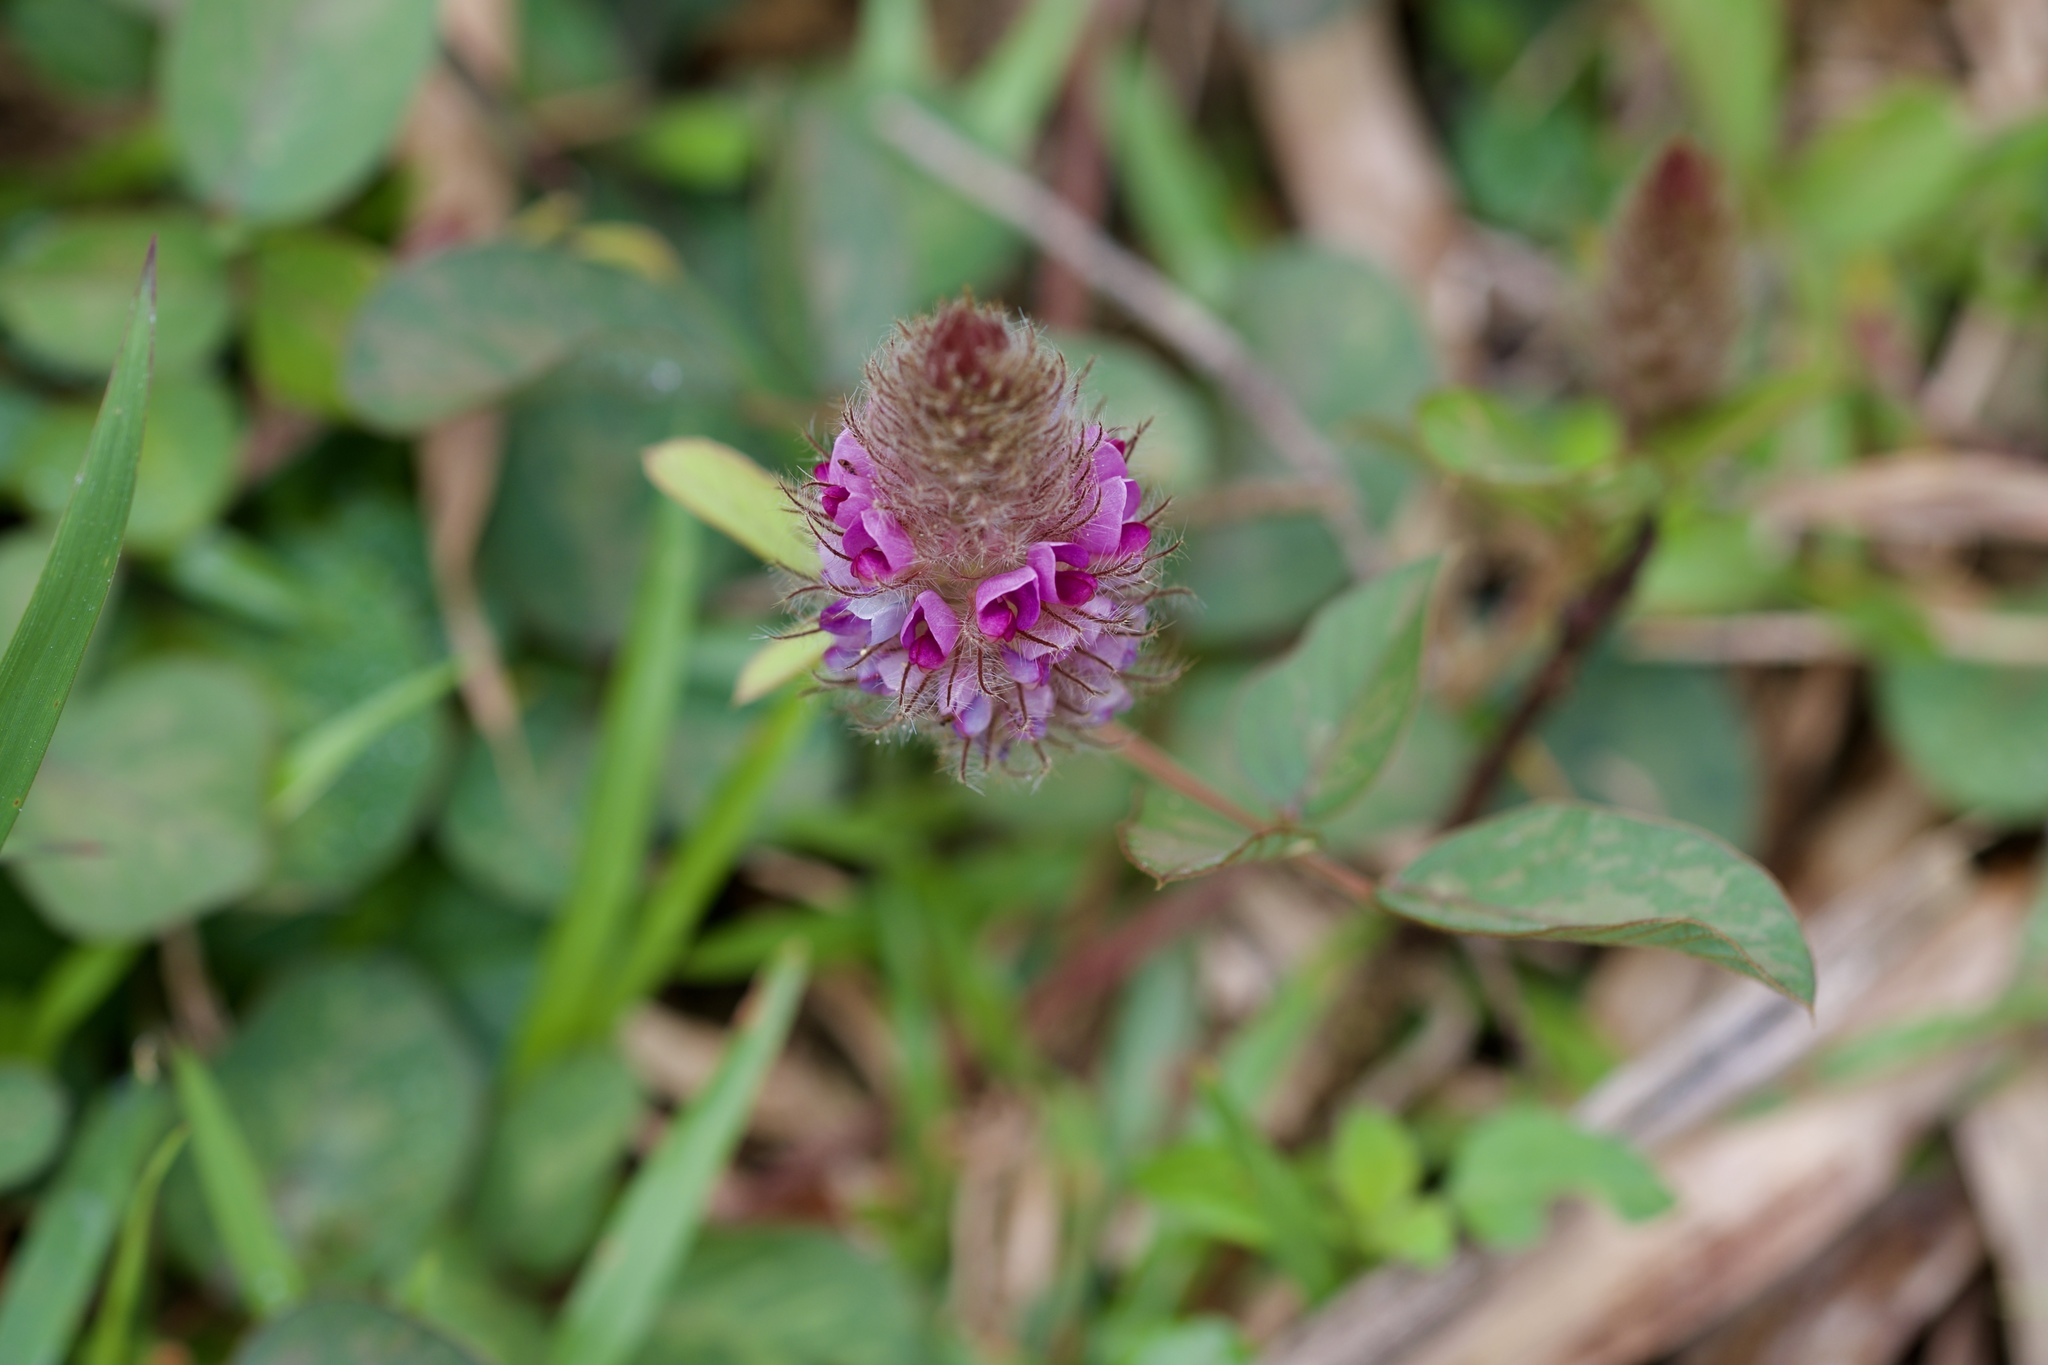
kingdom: Plantae
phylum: Tracheophyta
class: Magnoliopsida
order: Fabales
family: Fabaceae
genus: Uraria
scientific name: Uraria lagopodioides
